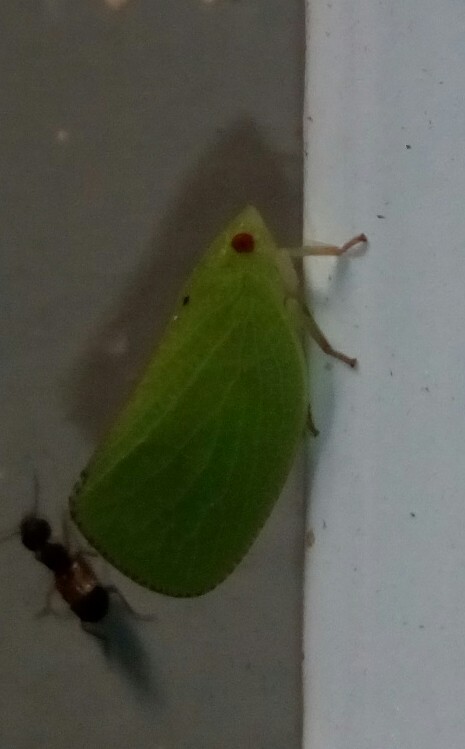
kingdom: Animalia
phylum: Arthropoda
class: Insecta
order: Hemiptera
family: Acanaloniidae
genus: Acanalonia
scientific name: Acanalonia conica
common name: Green cone-headed planthopper
